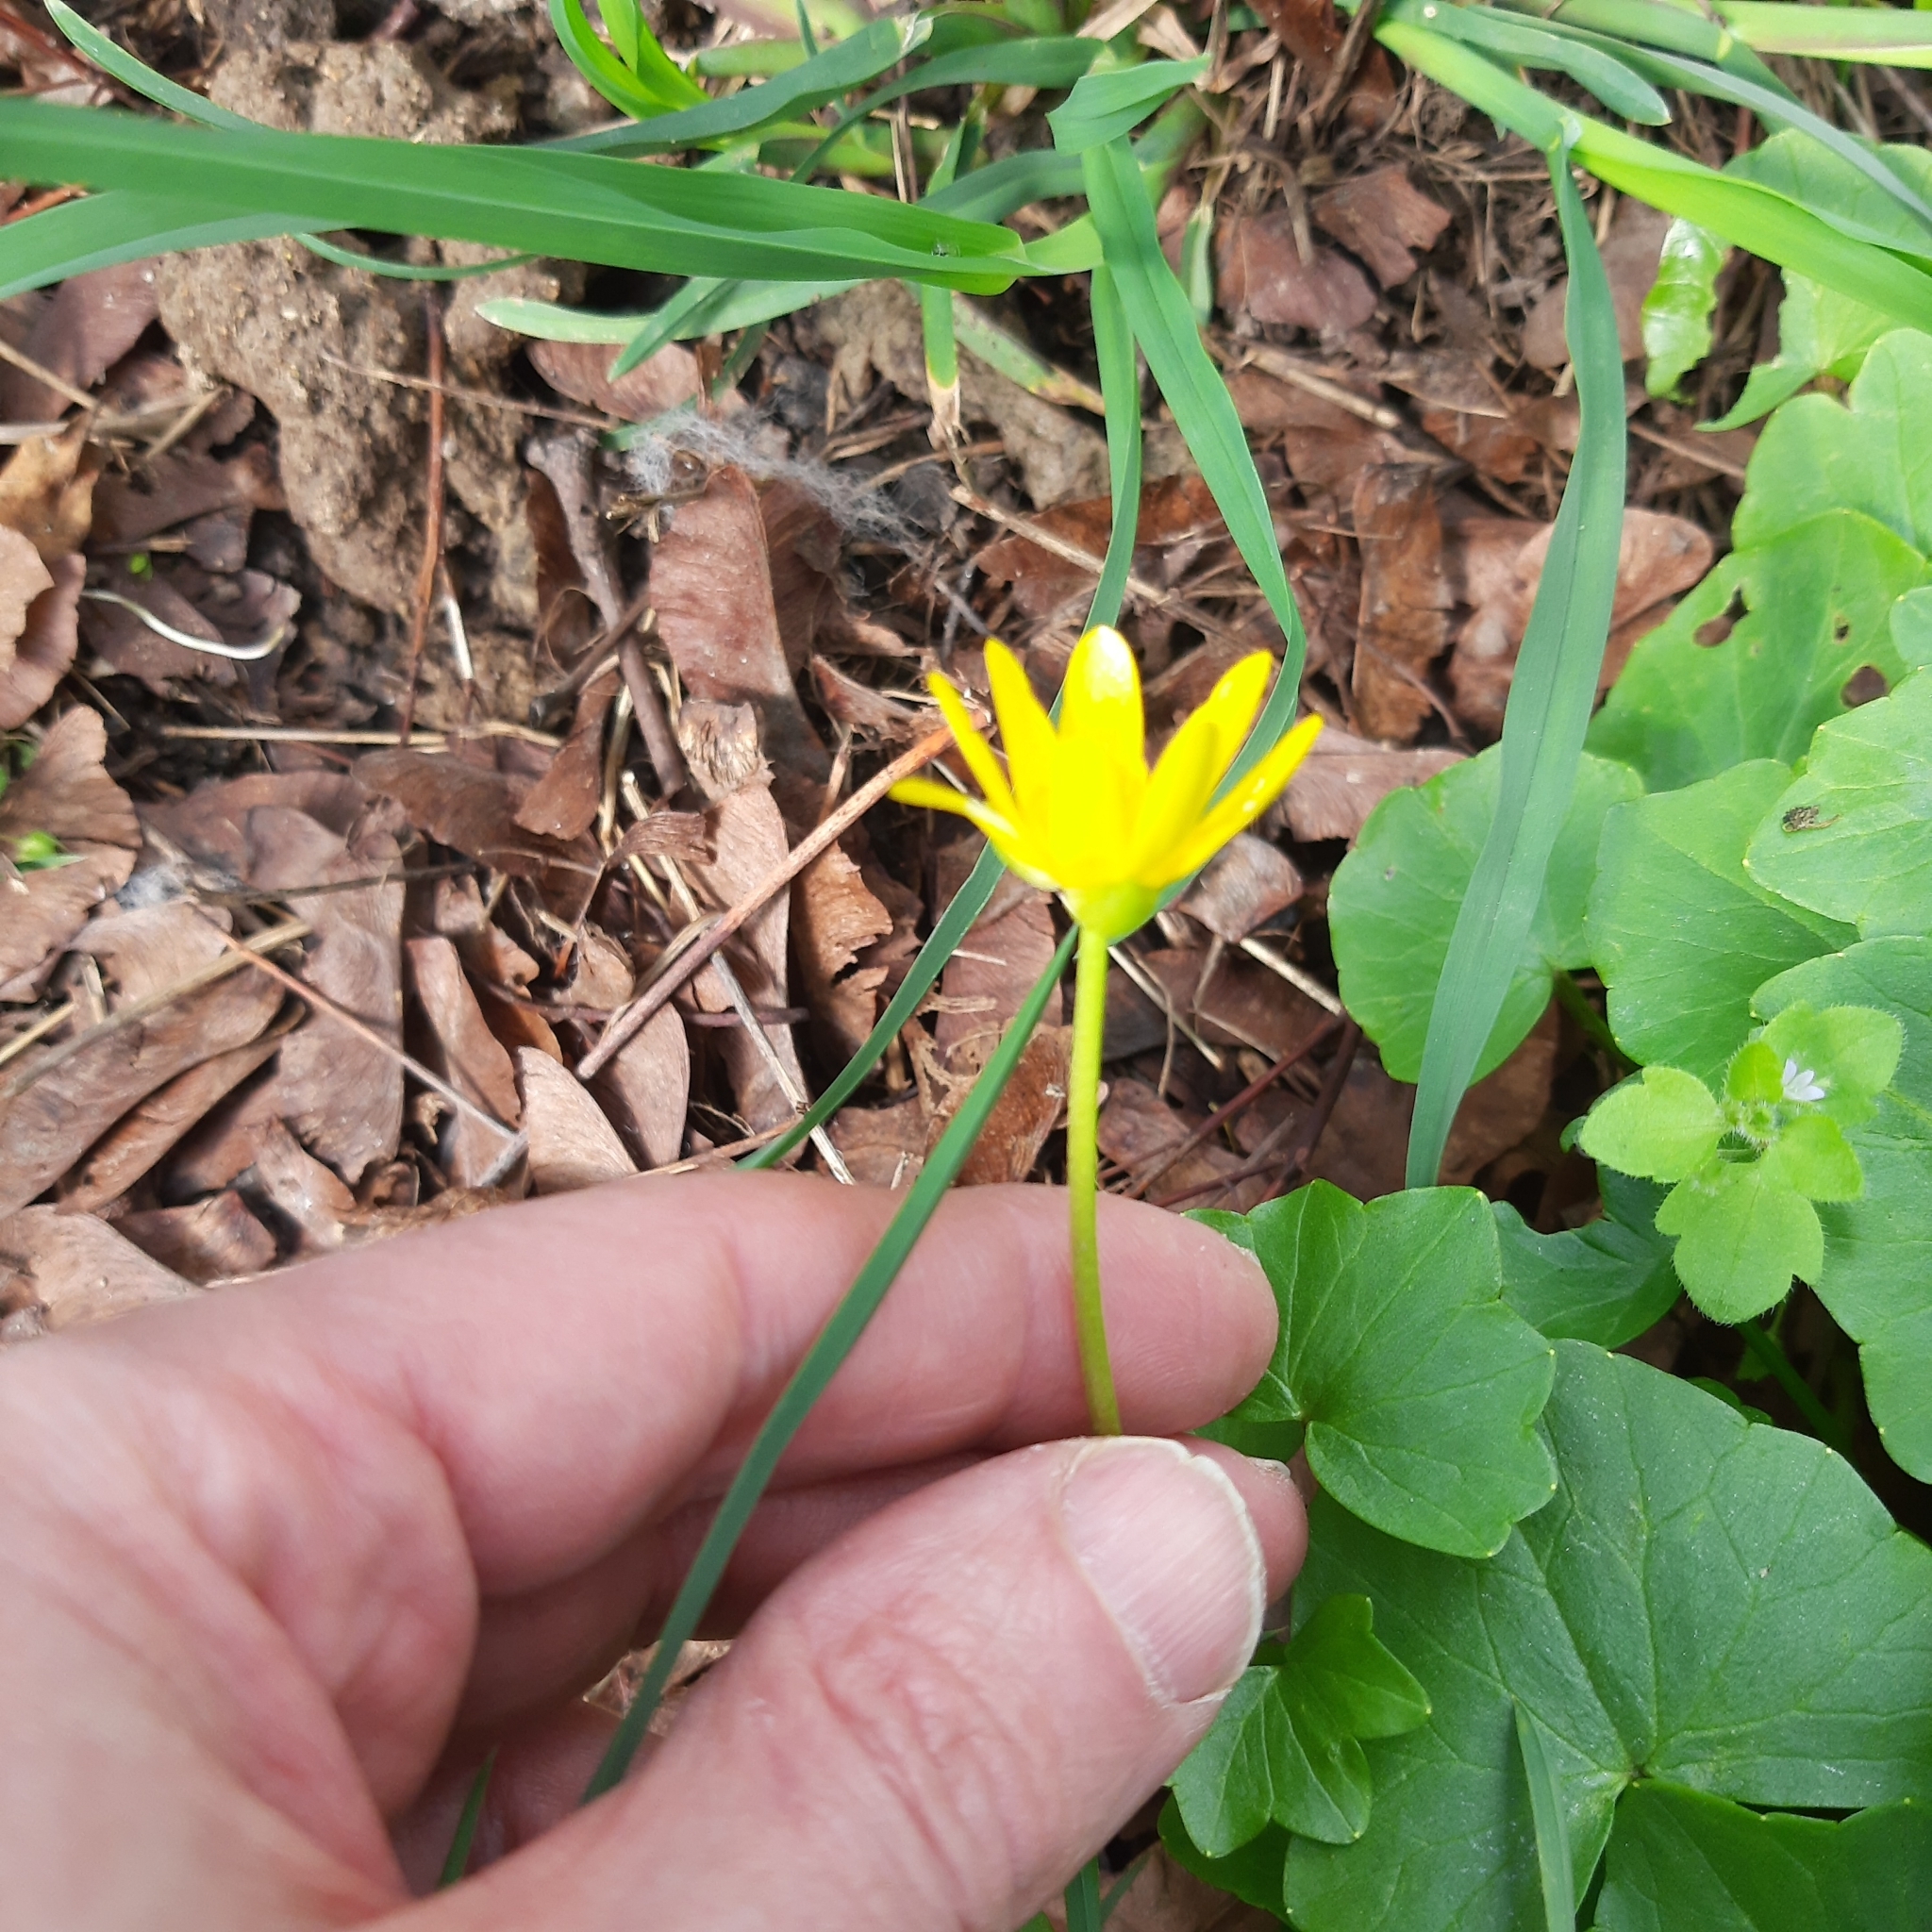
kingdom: Plantae
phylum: Tracheophyta
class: Magnoliopsida
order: Ranunculales
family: Ranunculaceae
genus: Ficaria
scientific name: Ficaria verna
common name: Lesser celandine
